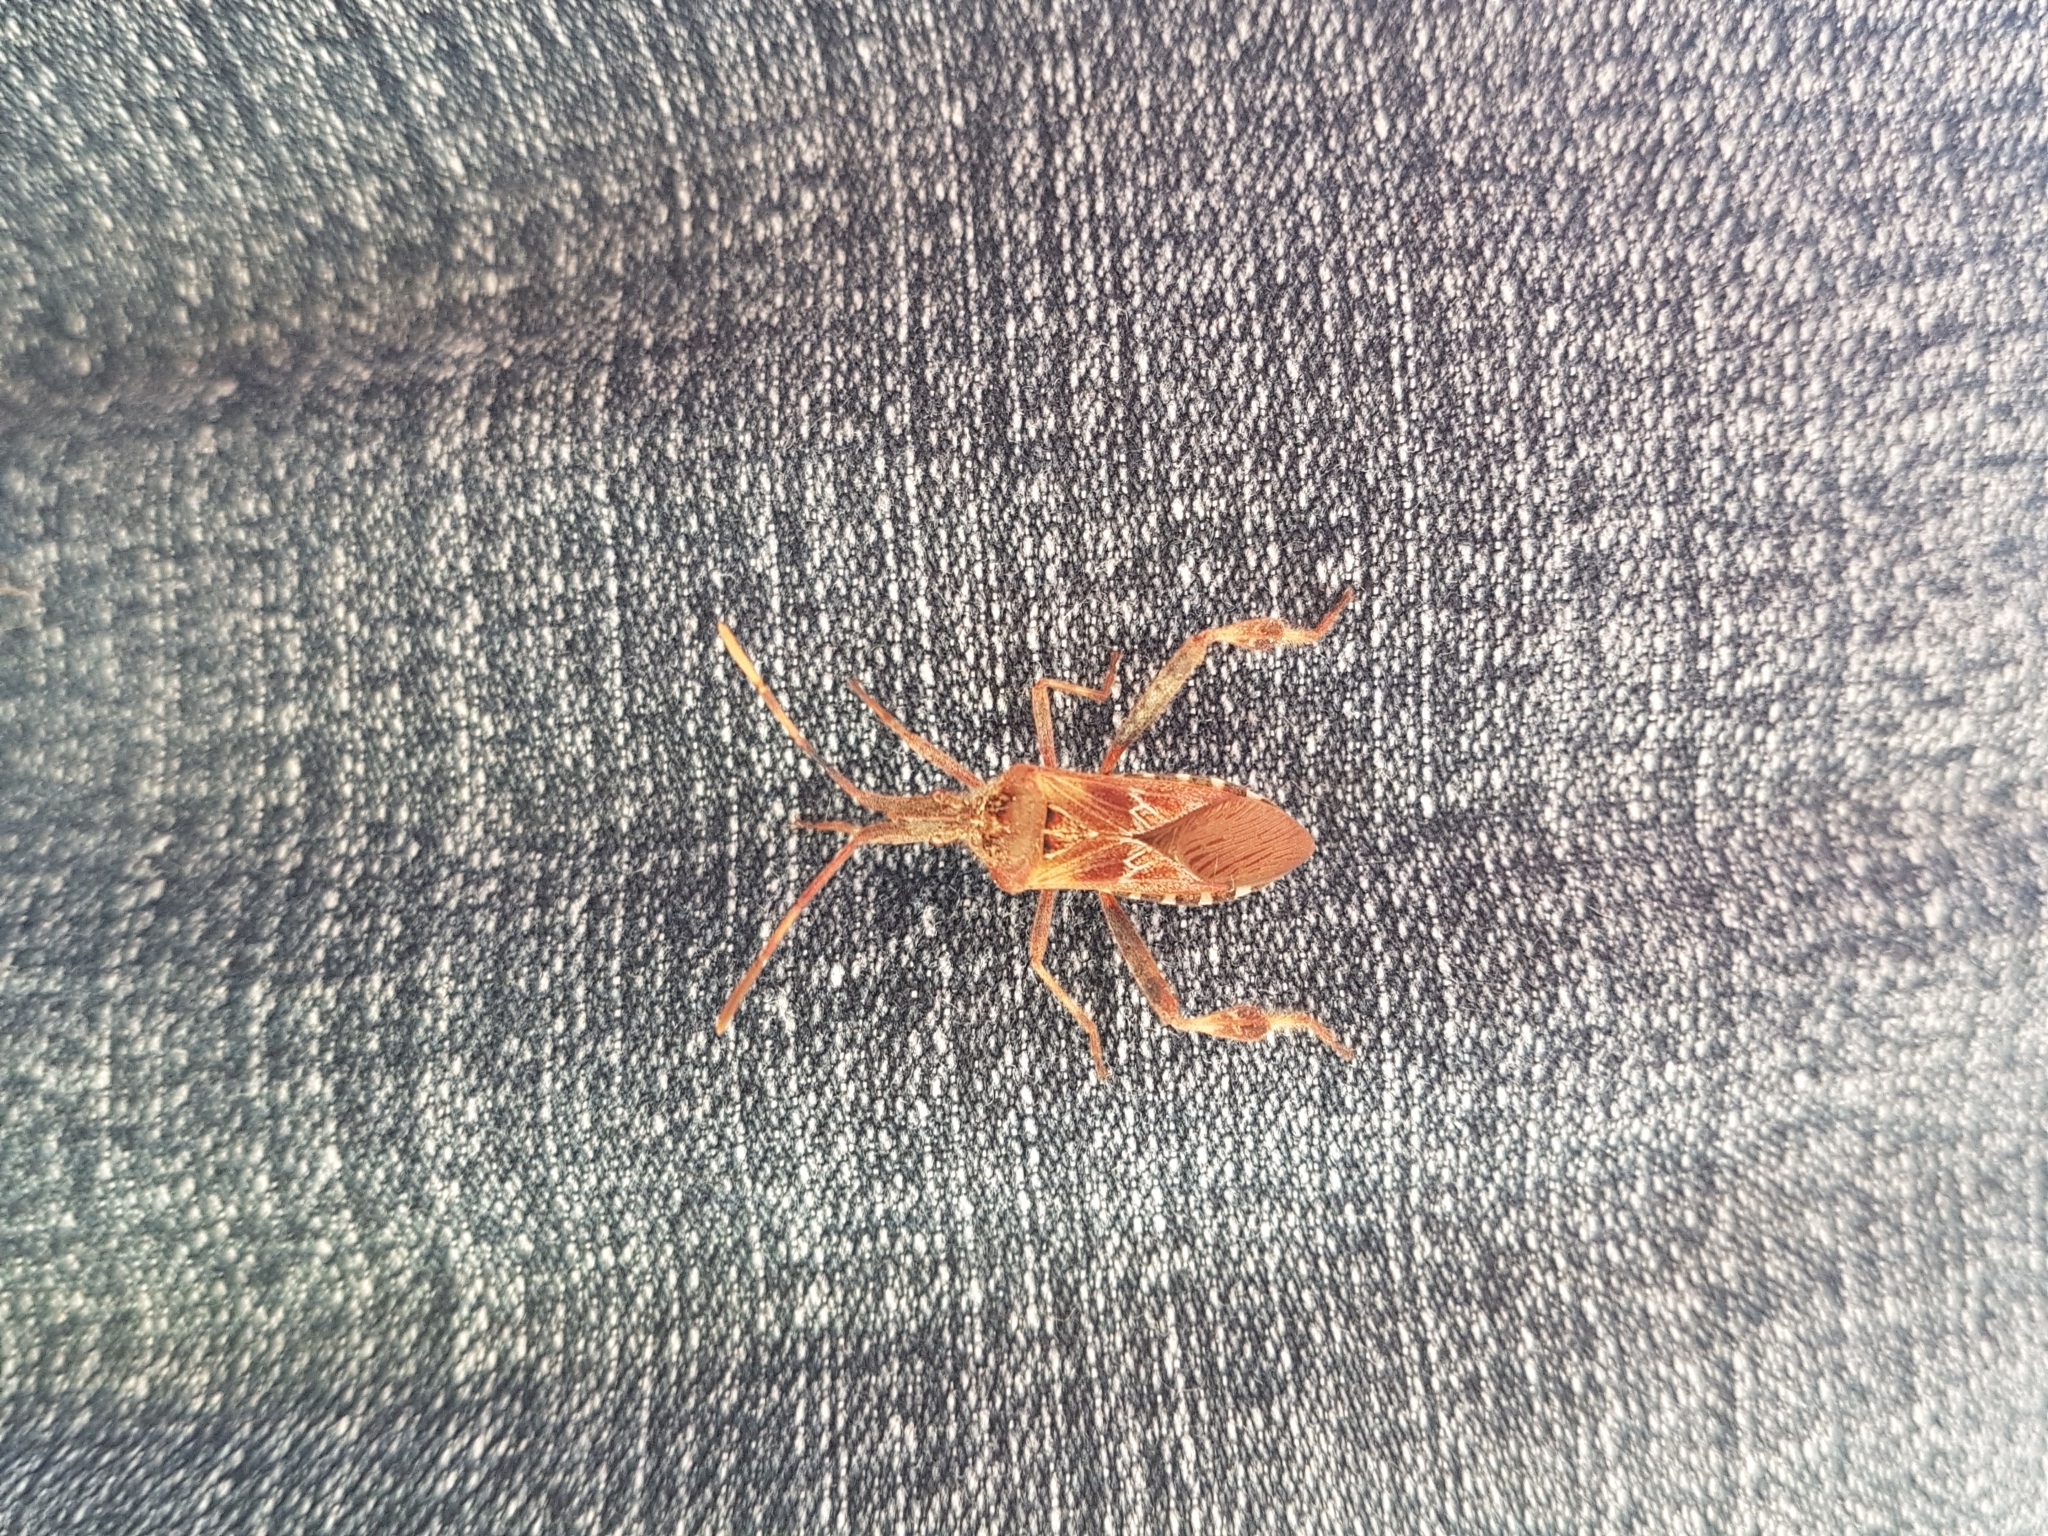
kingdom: Animalia
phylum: Arthropoda
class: Insecta
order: Hemiptera
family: Coreidae
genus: Leptoglossus
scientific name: Leptoglossus occidentalis
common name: Western conifer-seed bug
